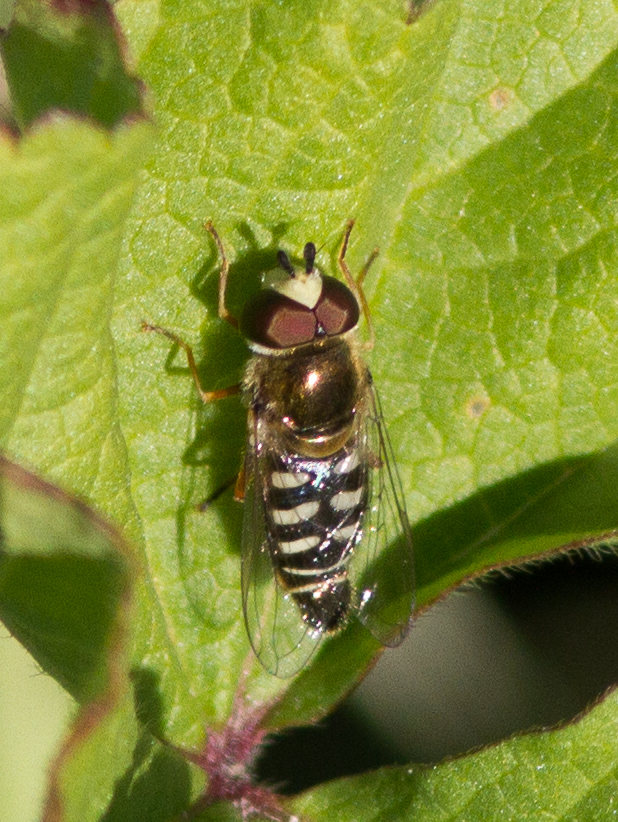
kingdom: Animalia
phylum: Arthropoda
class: Insecta
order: Diptera
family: Syrphidae
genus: Eupeodes
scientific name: Eupeodes volucris
